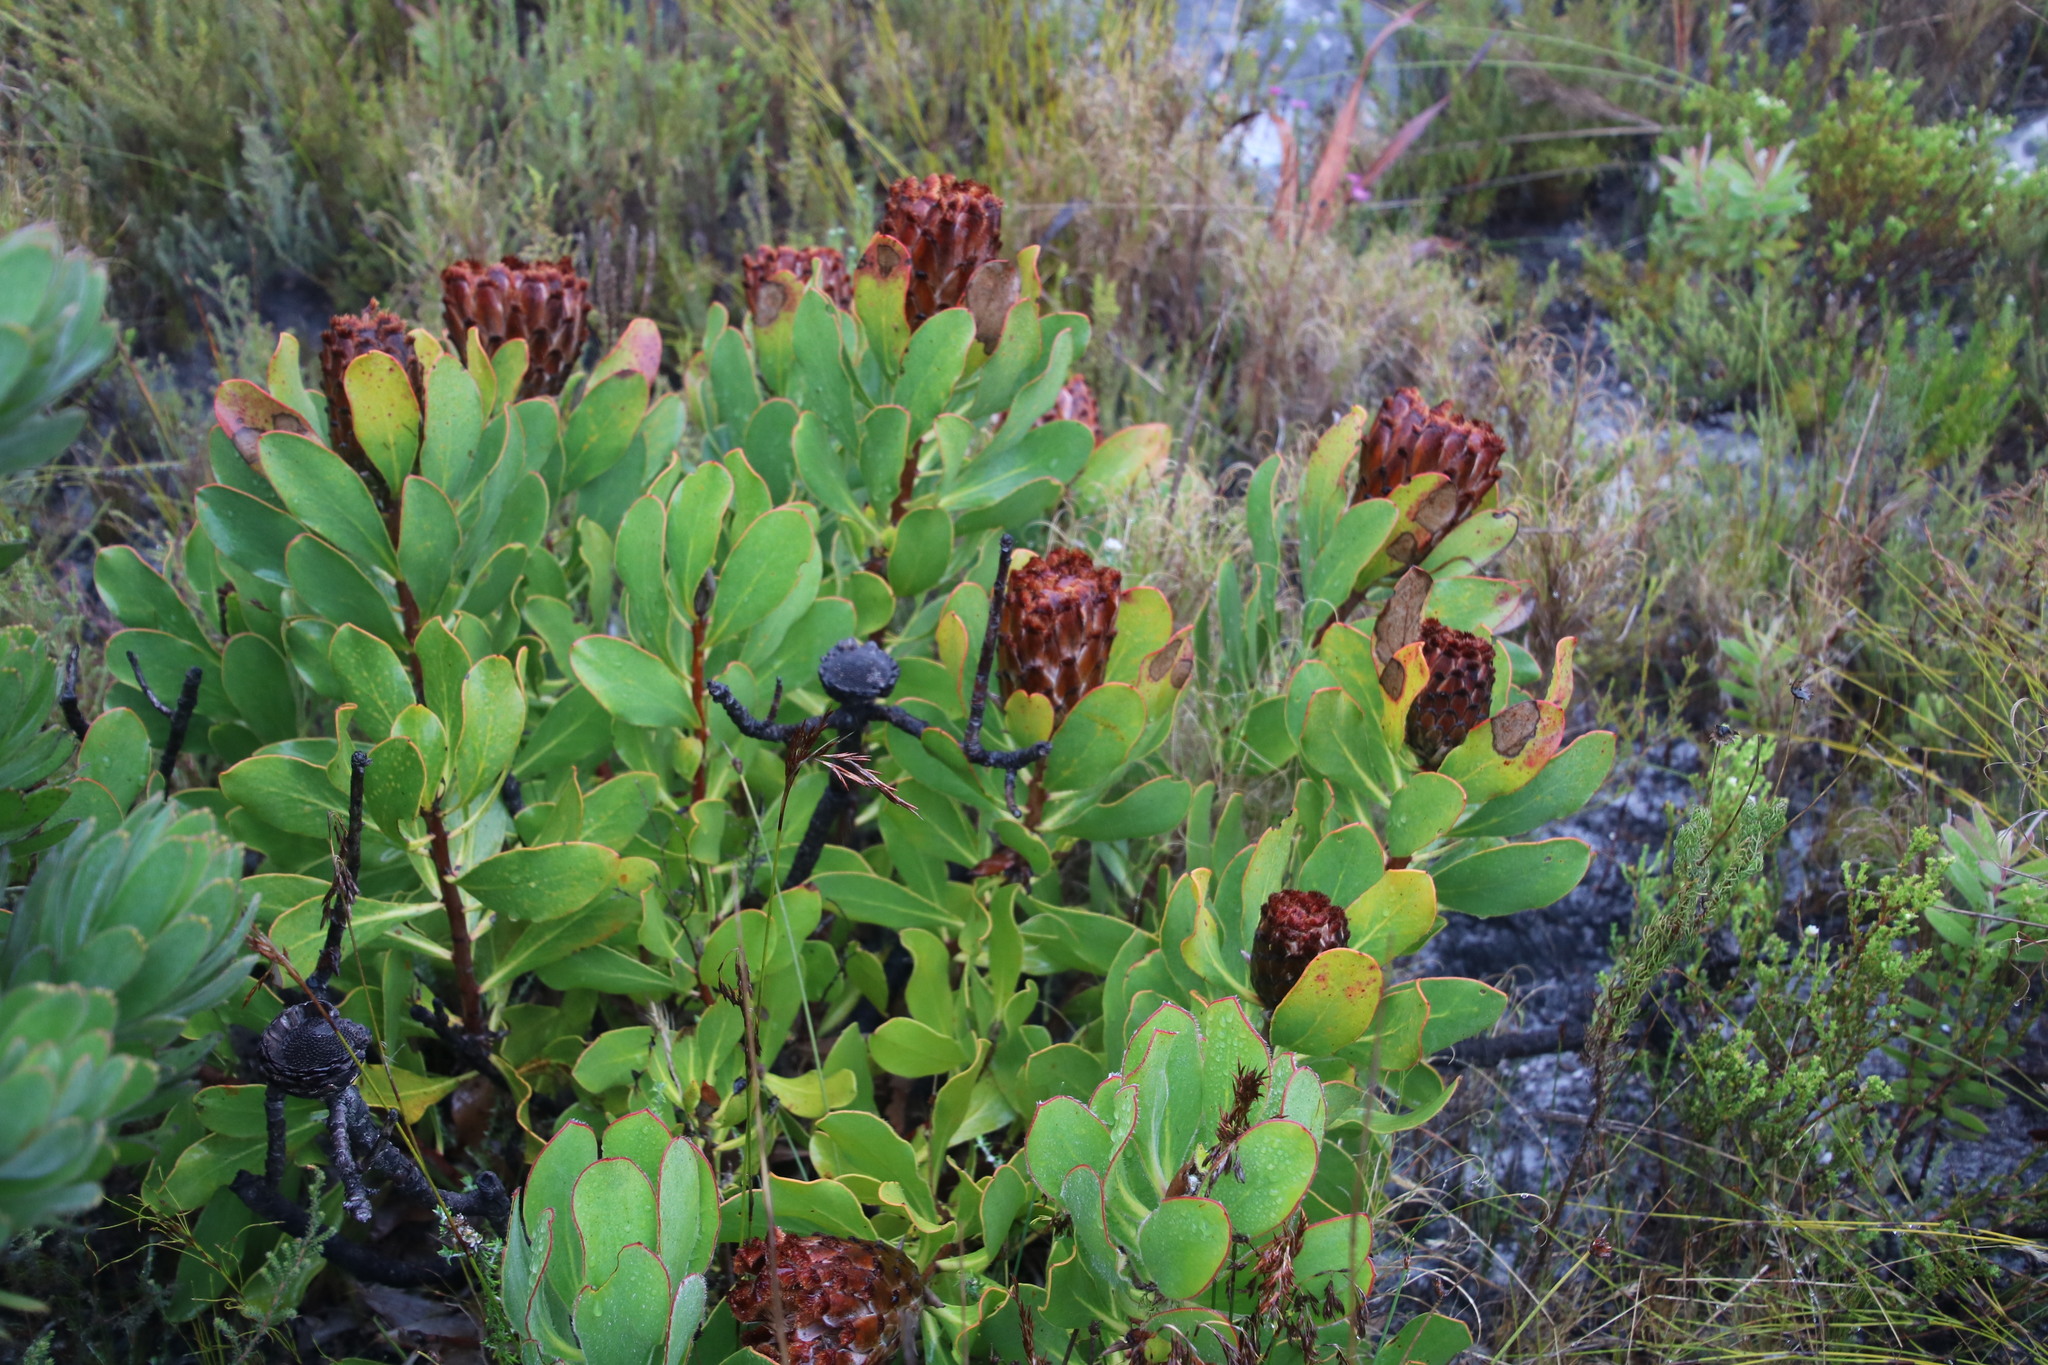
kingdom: Plantae
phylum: Tracheophyta
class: Magnoliopsida
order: Proteales
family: Proteaceae
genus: Protea
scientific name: Protea speciosa
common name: Brown-beard sugarbush
